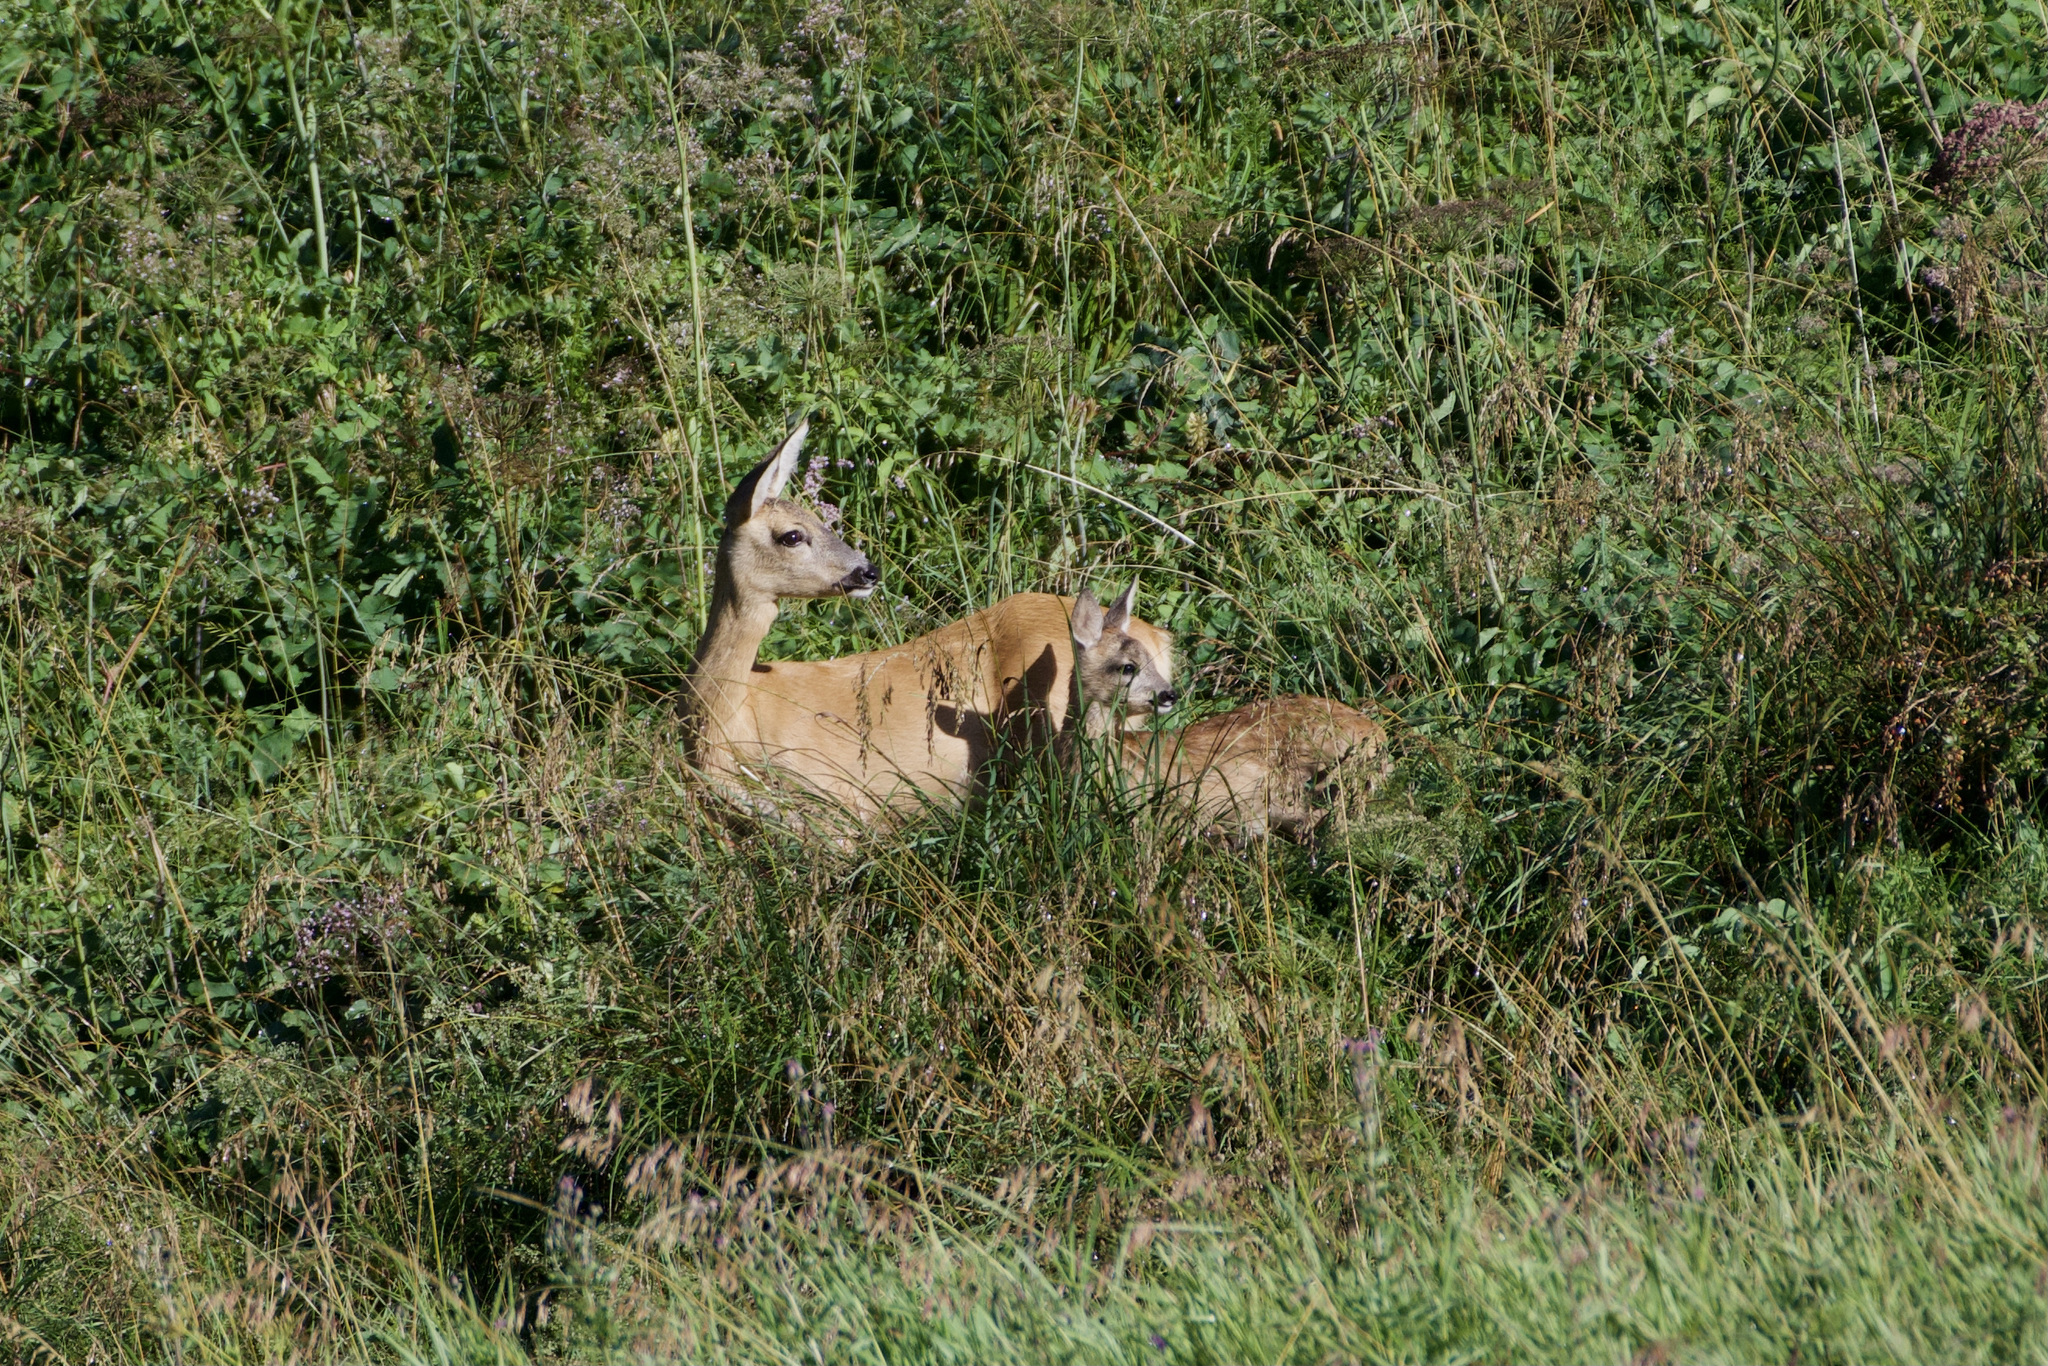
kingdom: Animalia
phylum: Chordata
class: Mammalia
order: Artiodactyla
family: Cervidae
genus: Capreolus
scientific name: Capreolus capreolus
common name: Western roe deer
